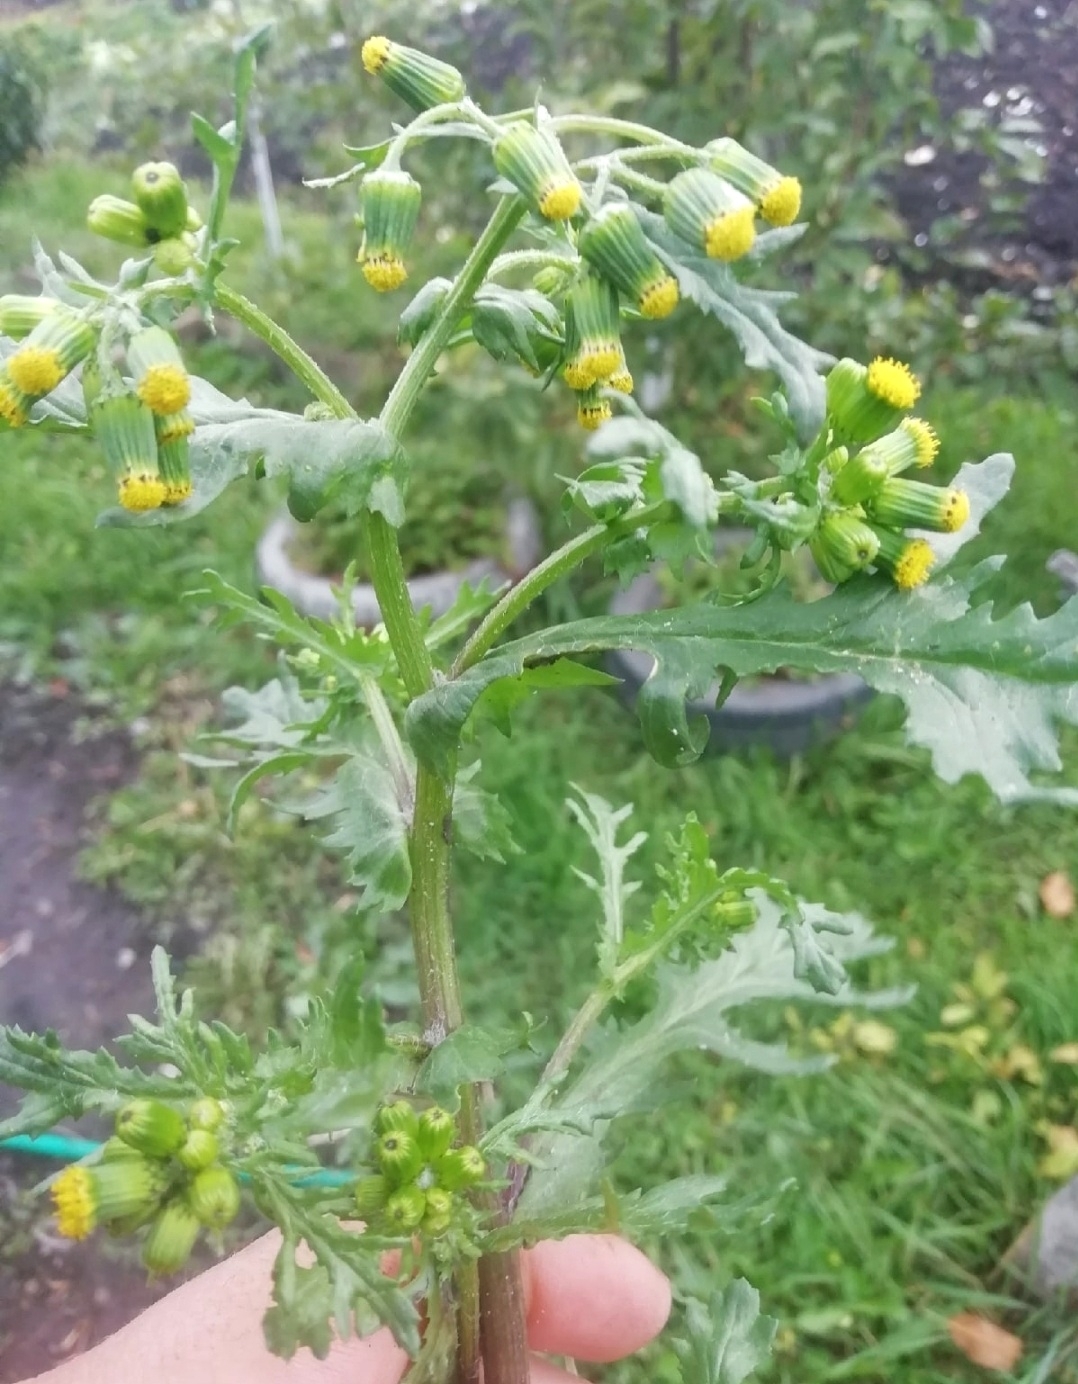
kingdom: Plantae
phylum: Tracheophyta
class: Magnoliopsida
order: Asterales
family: Asteraceae
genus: Senecio
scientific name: Senecio vulgaris
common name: Old-man-in-the-spring
